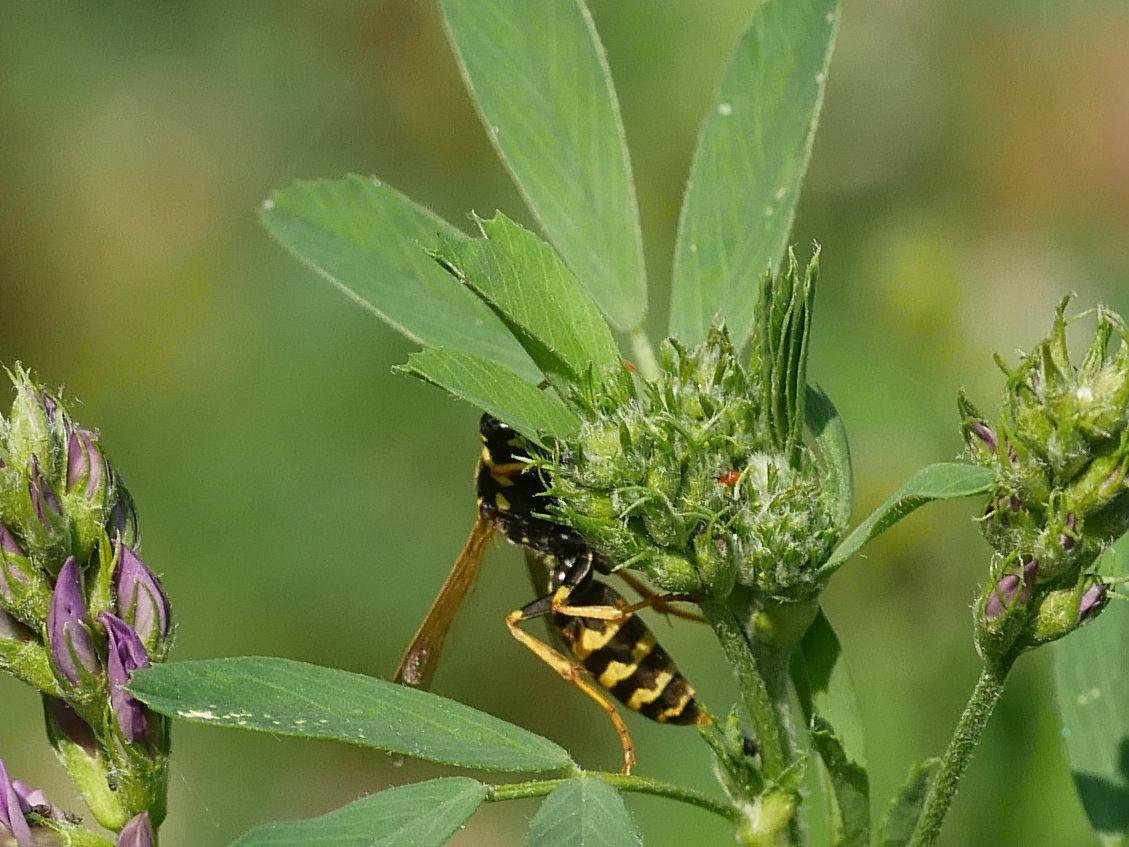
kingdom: Animalia
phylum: Arthropoda
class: Insecta
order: Hymenoptera
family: Eumenidae
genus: Polistes
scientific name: Polistes dominula
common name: Paper wasp
